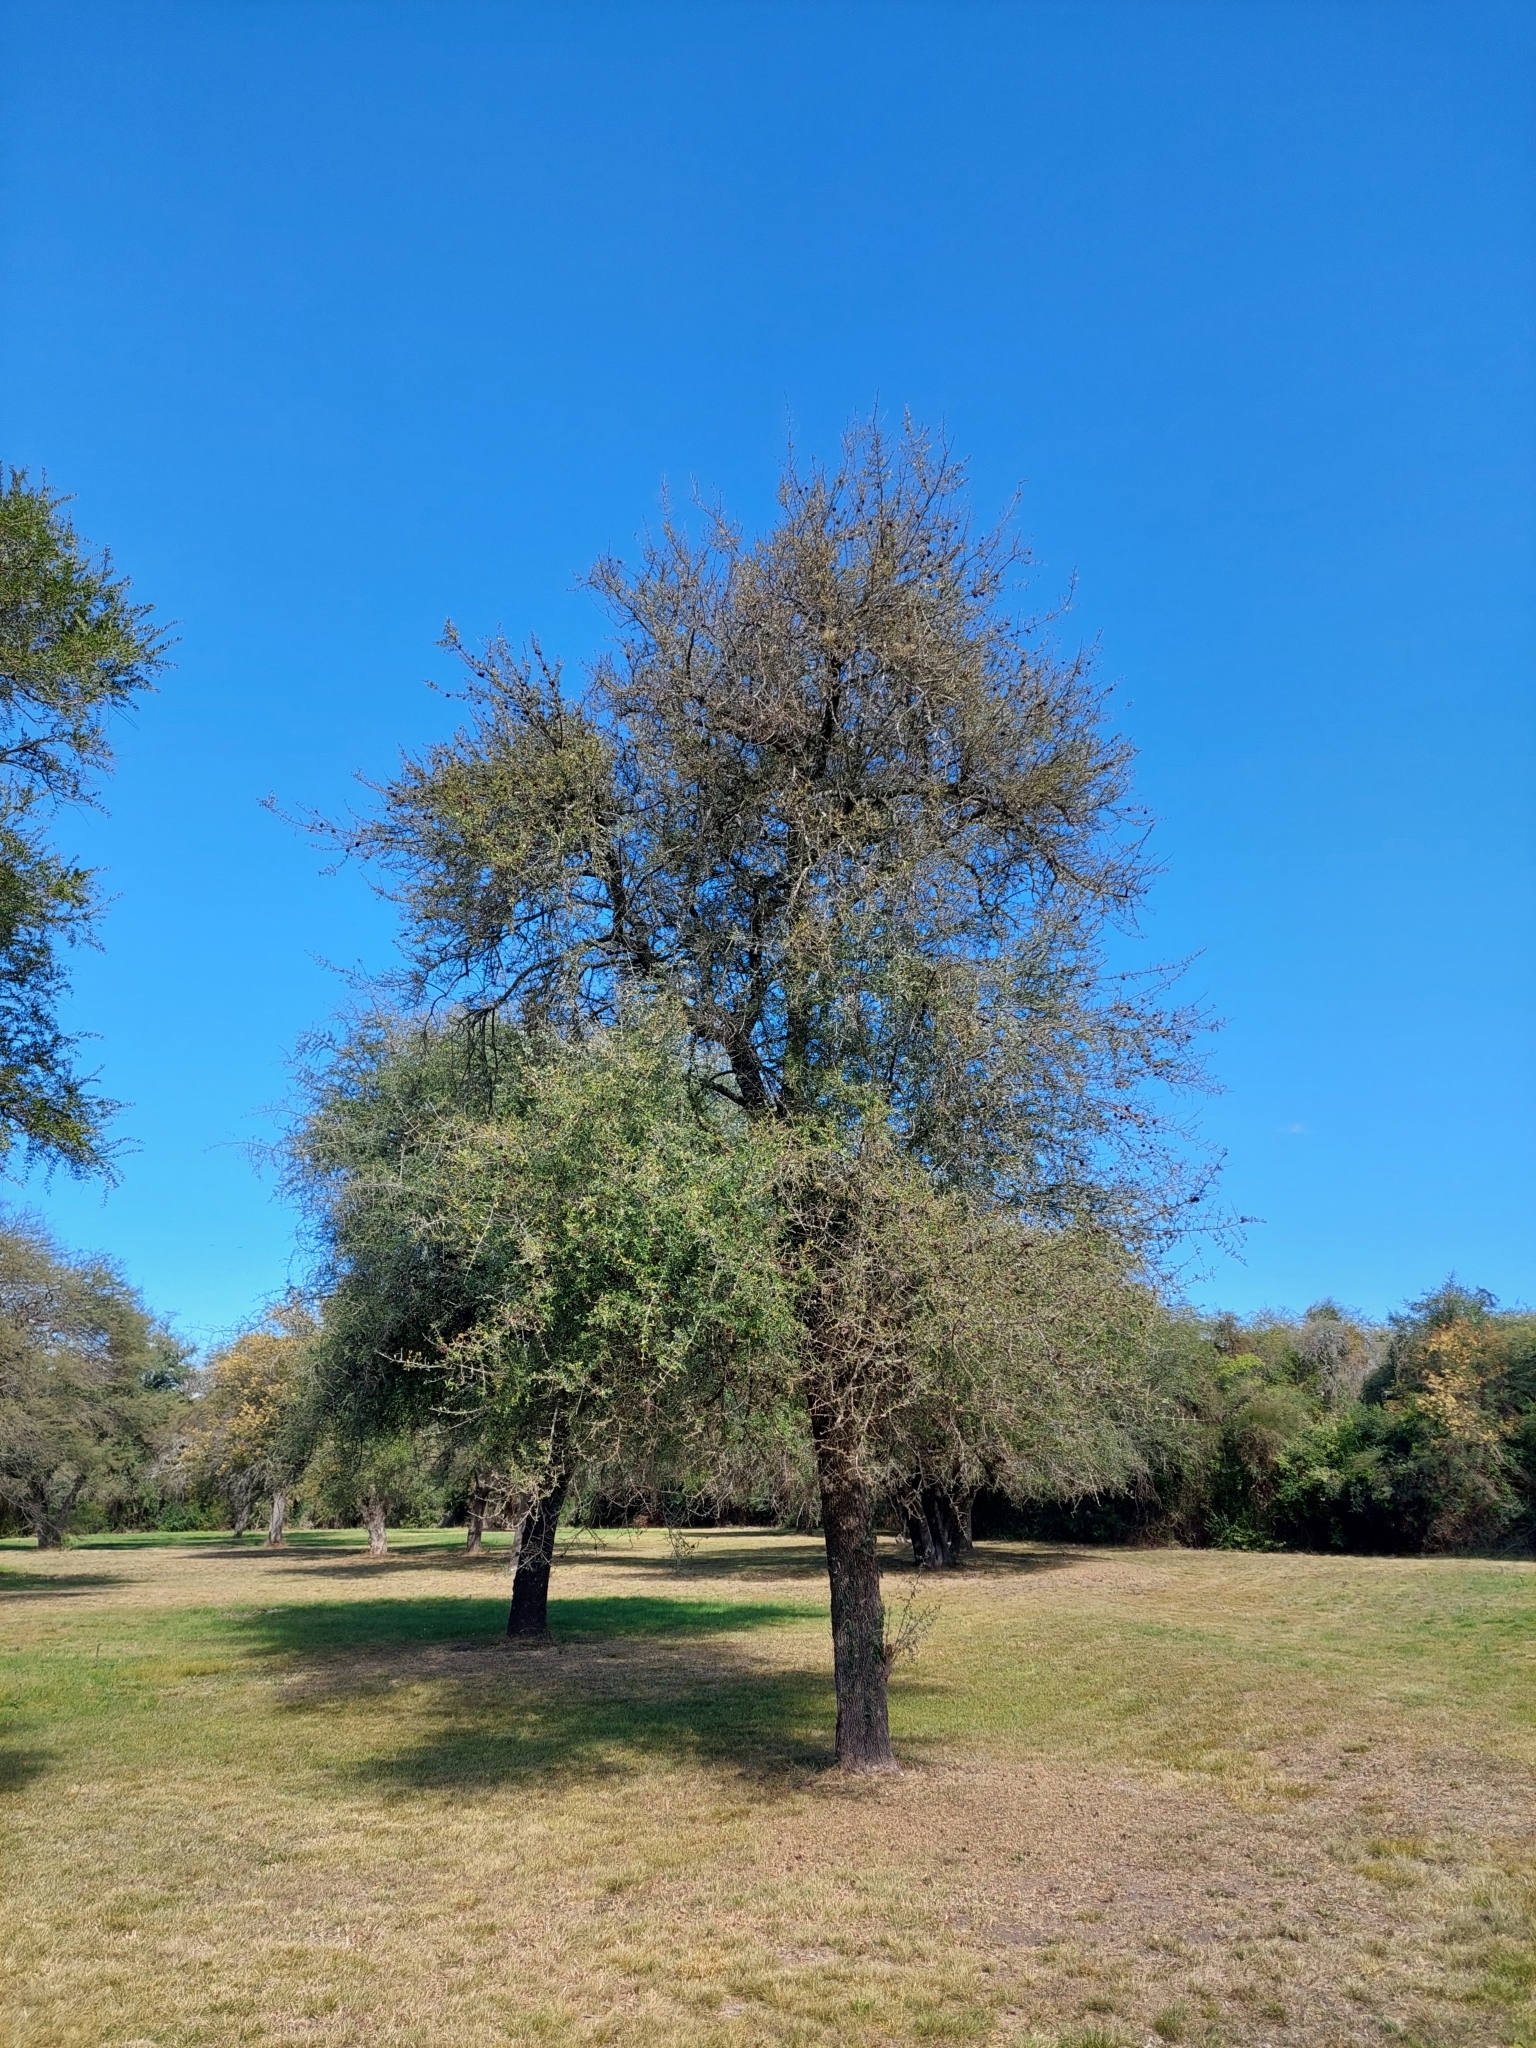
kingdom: Plantae
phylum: Tracheophyta
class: Magnoliopsida
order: Ericales
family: Sapotaceae
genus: Sideroxylon
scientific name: Sideroxylon obtusifolium
